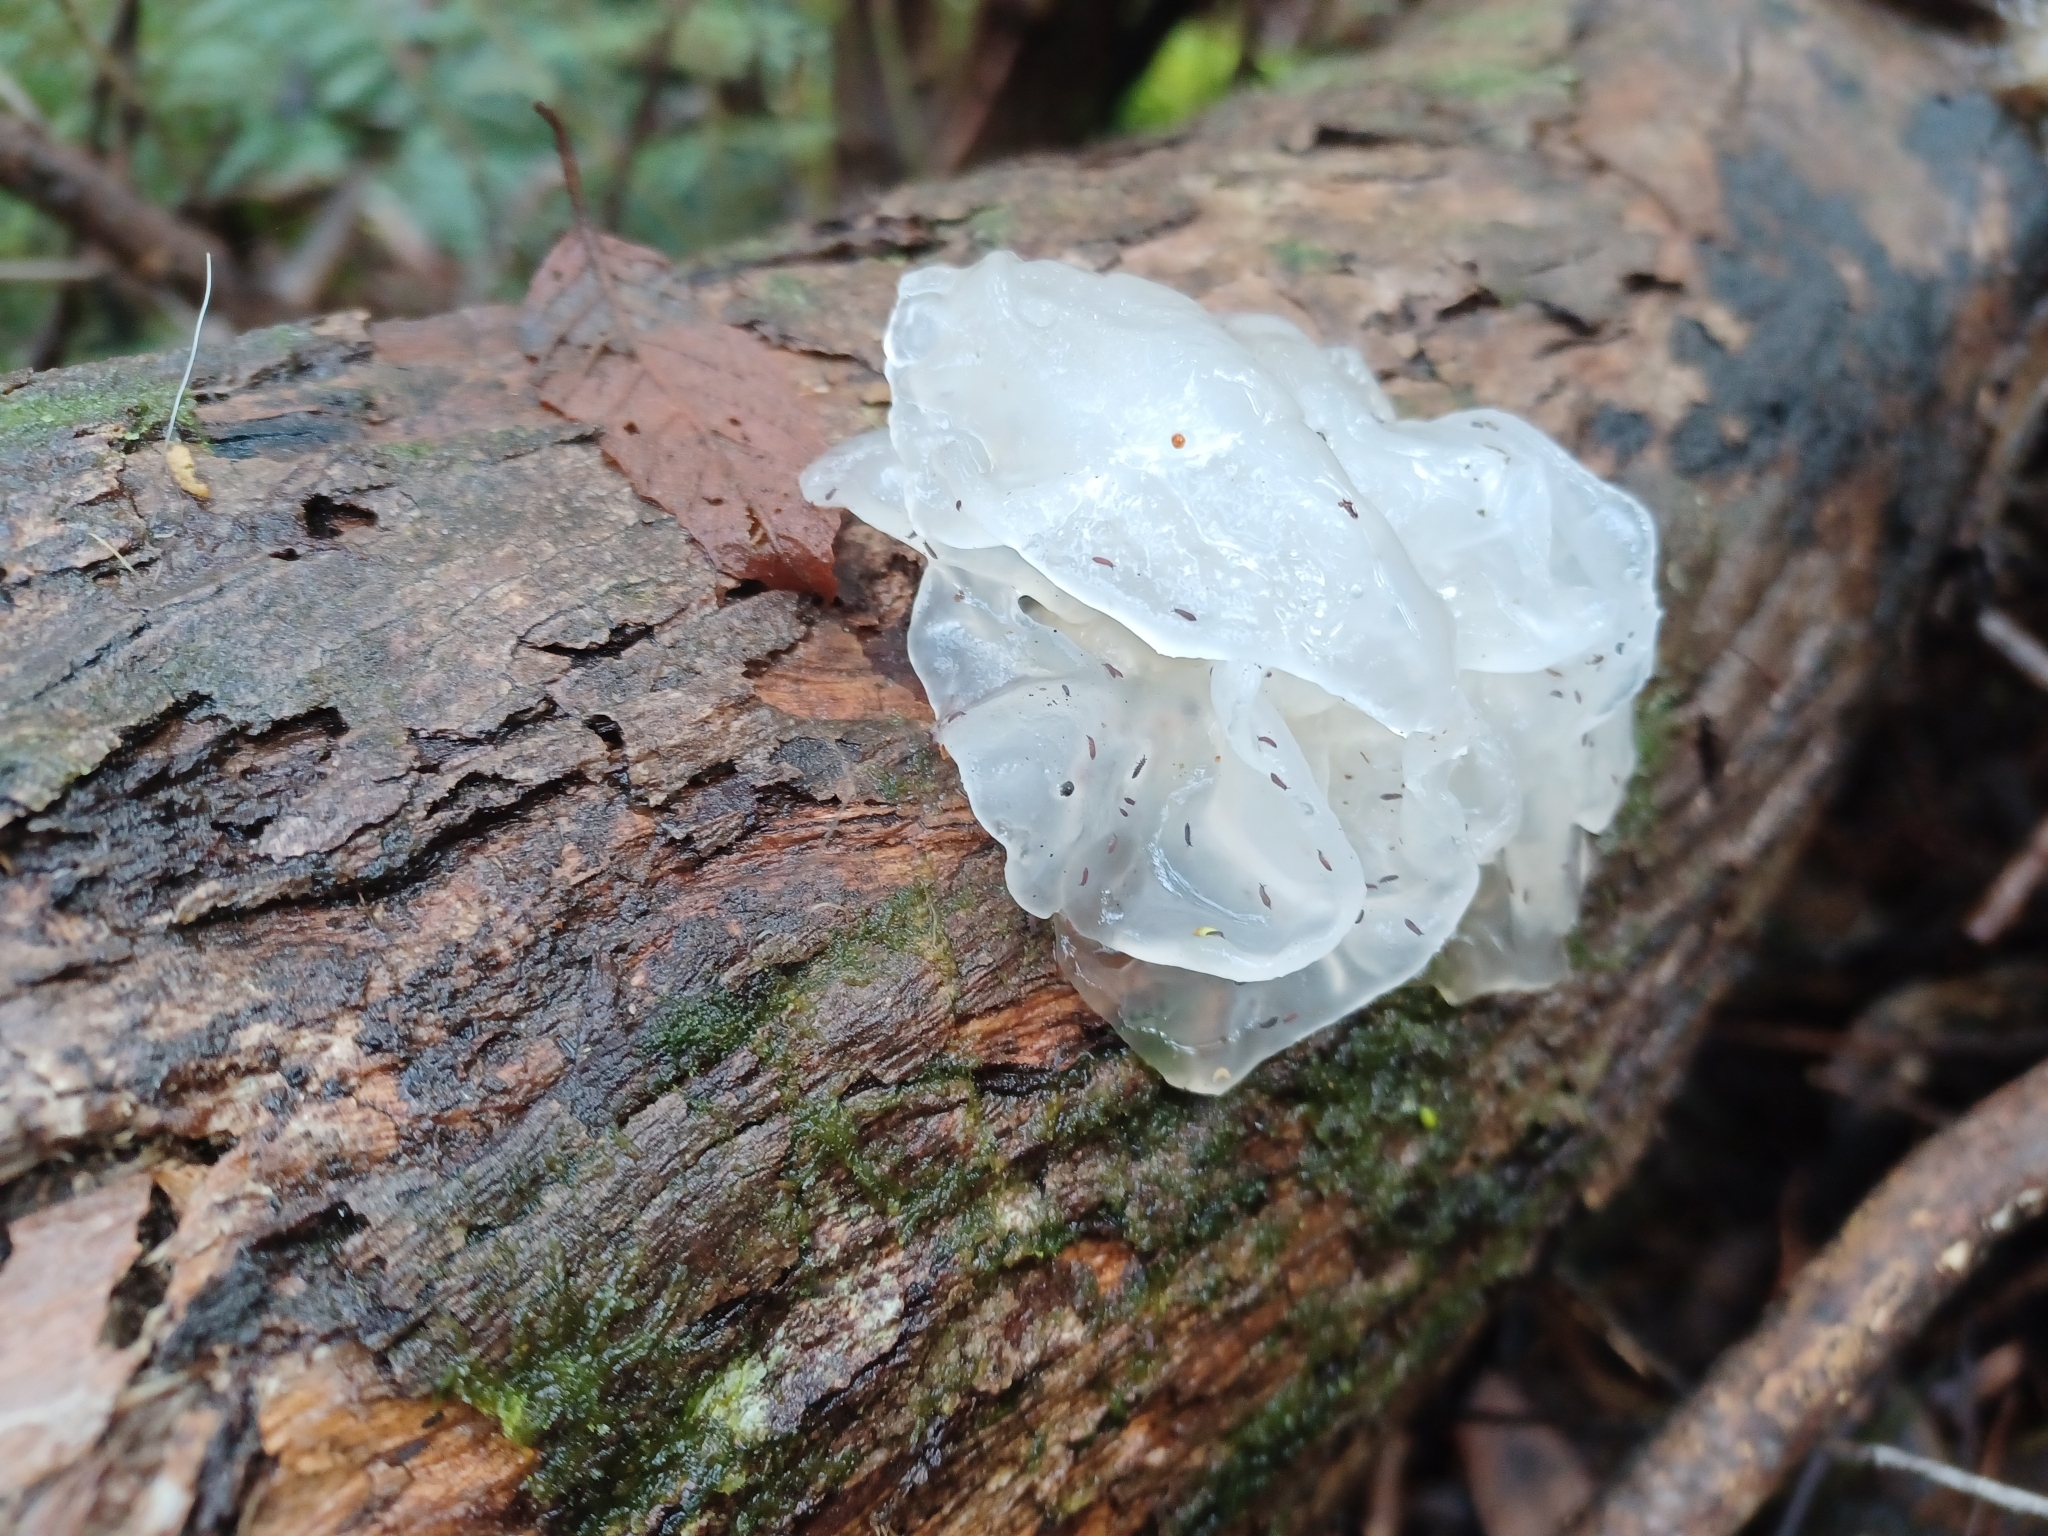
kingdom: Fungi
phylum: Basidiomycota
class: Tremellomycetes
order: Tremellales
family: Tremellaceae
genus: Tremella
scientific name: Tremella fuciformis
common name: Snow fungus
